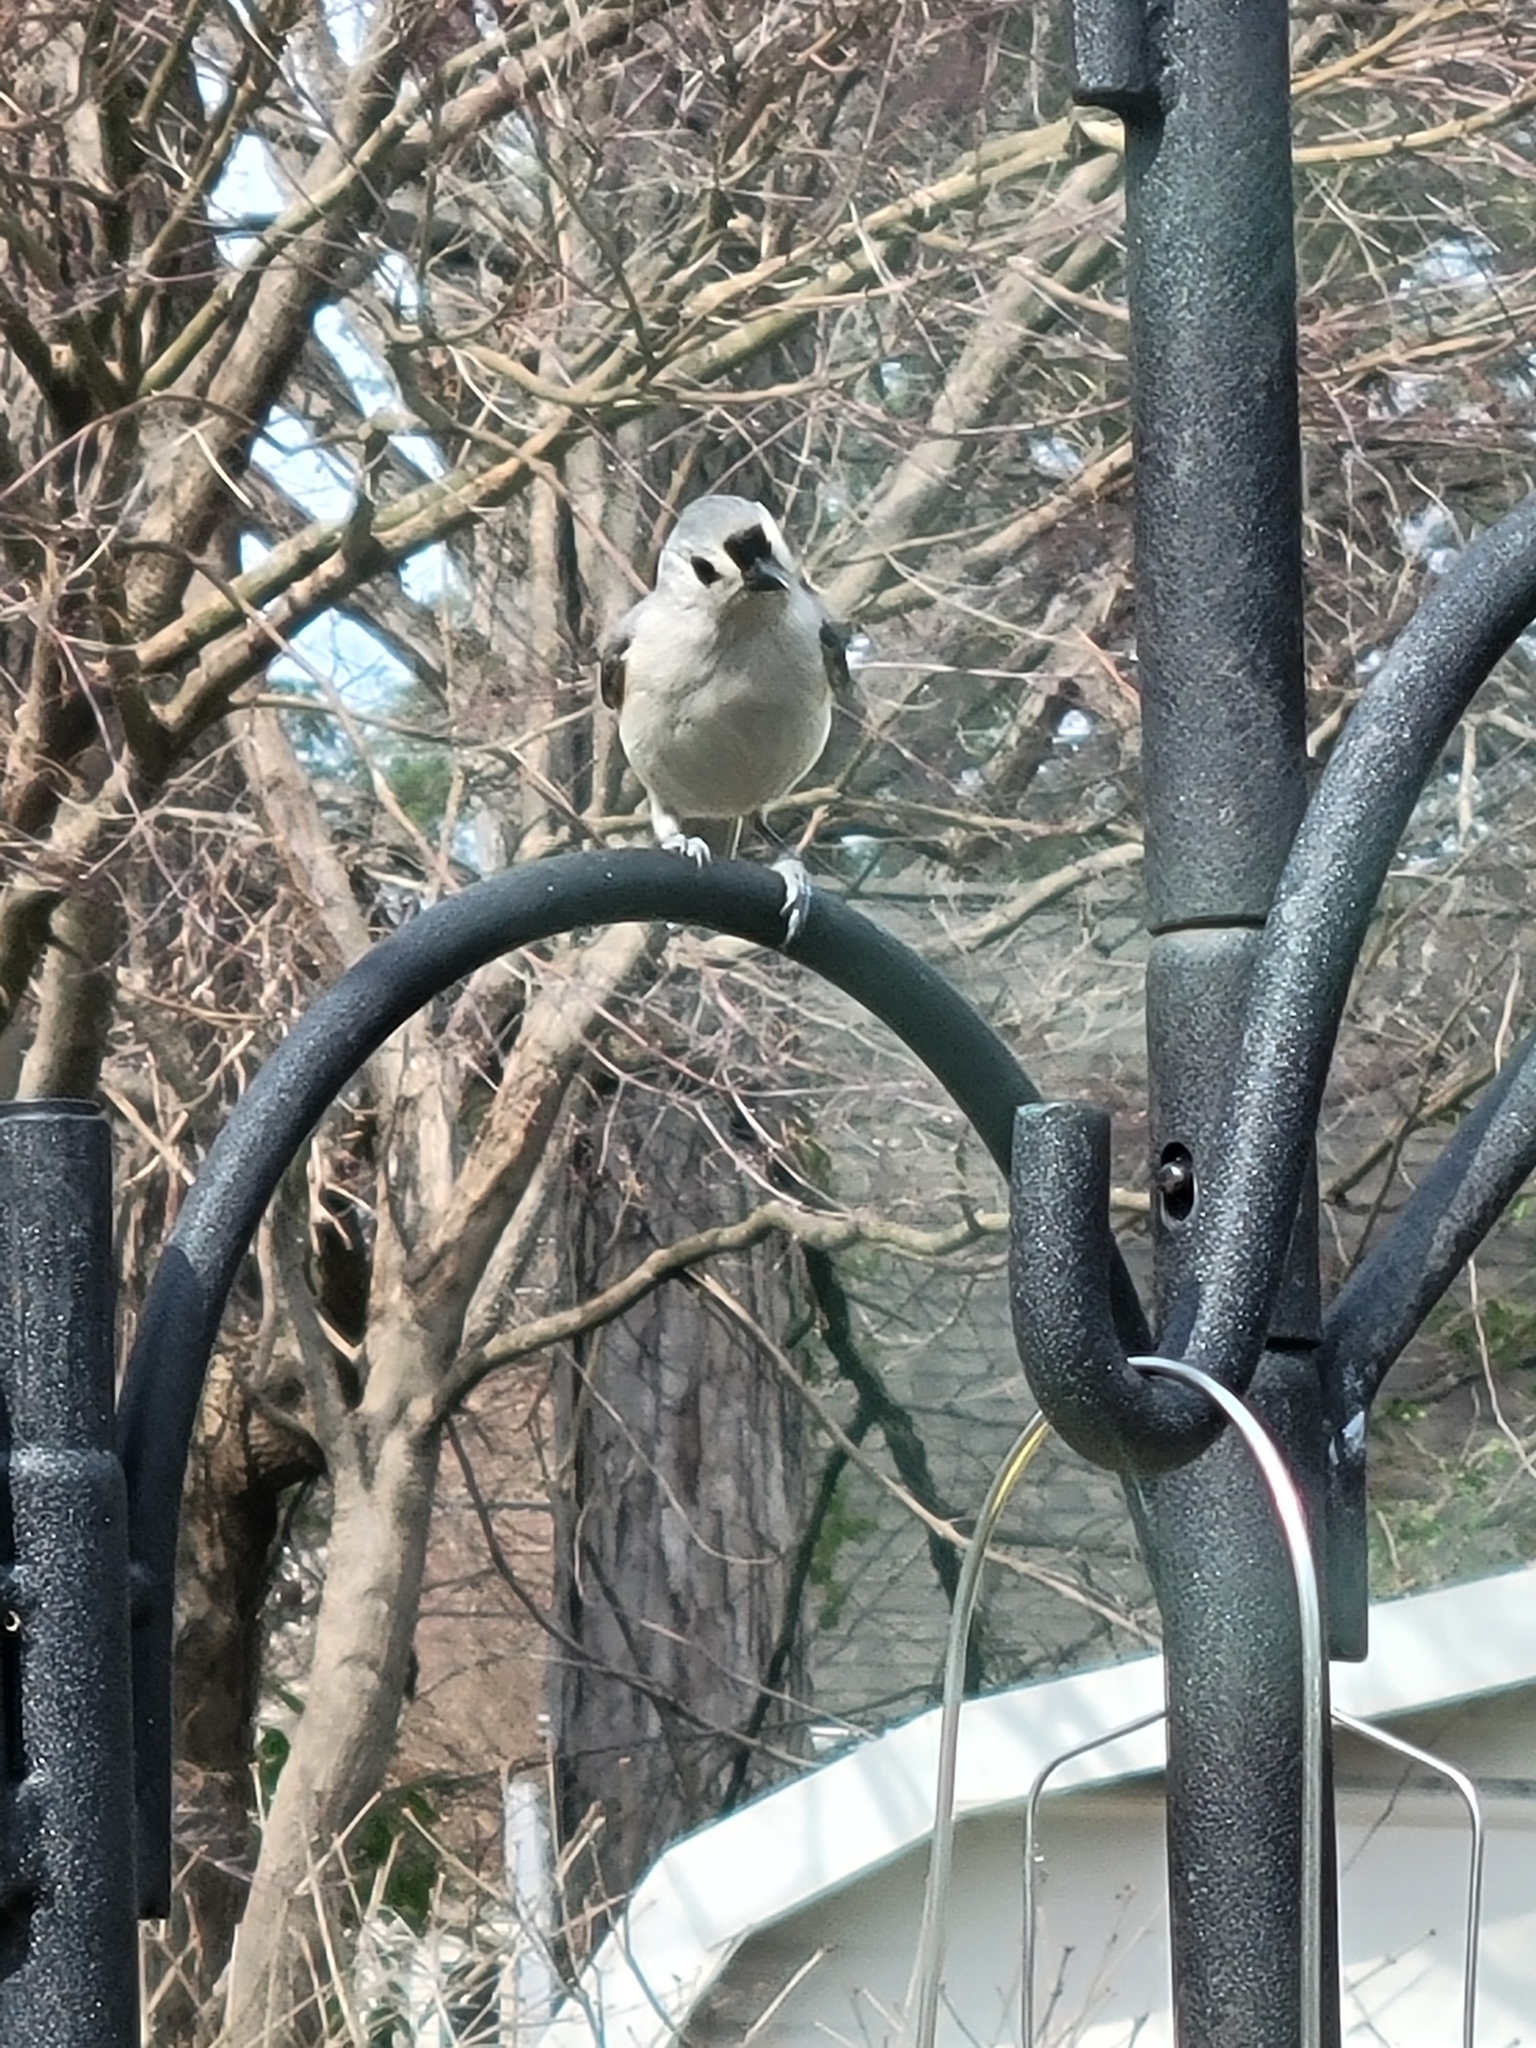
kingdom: Animalia
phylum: Chordata
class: Aves
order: Passeriformes
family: Paridae
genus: Baeolophus
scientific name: Baeolophus bicolor
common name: Tufted titmouse
